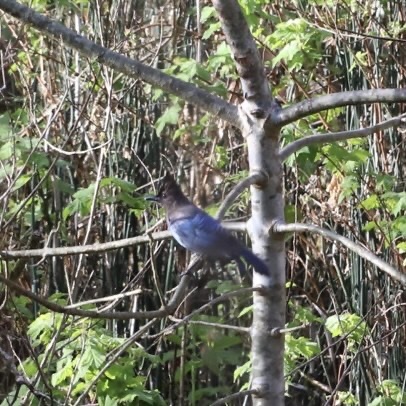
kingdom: Animalia
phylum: Chordata
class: Aves
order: Passeriformes
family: Corvidae
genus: Cyanocitta
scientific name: Cyanocitta stelleri
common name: Steller's jay
